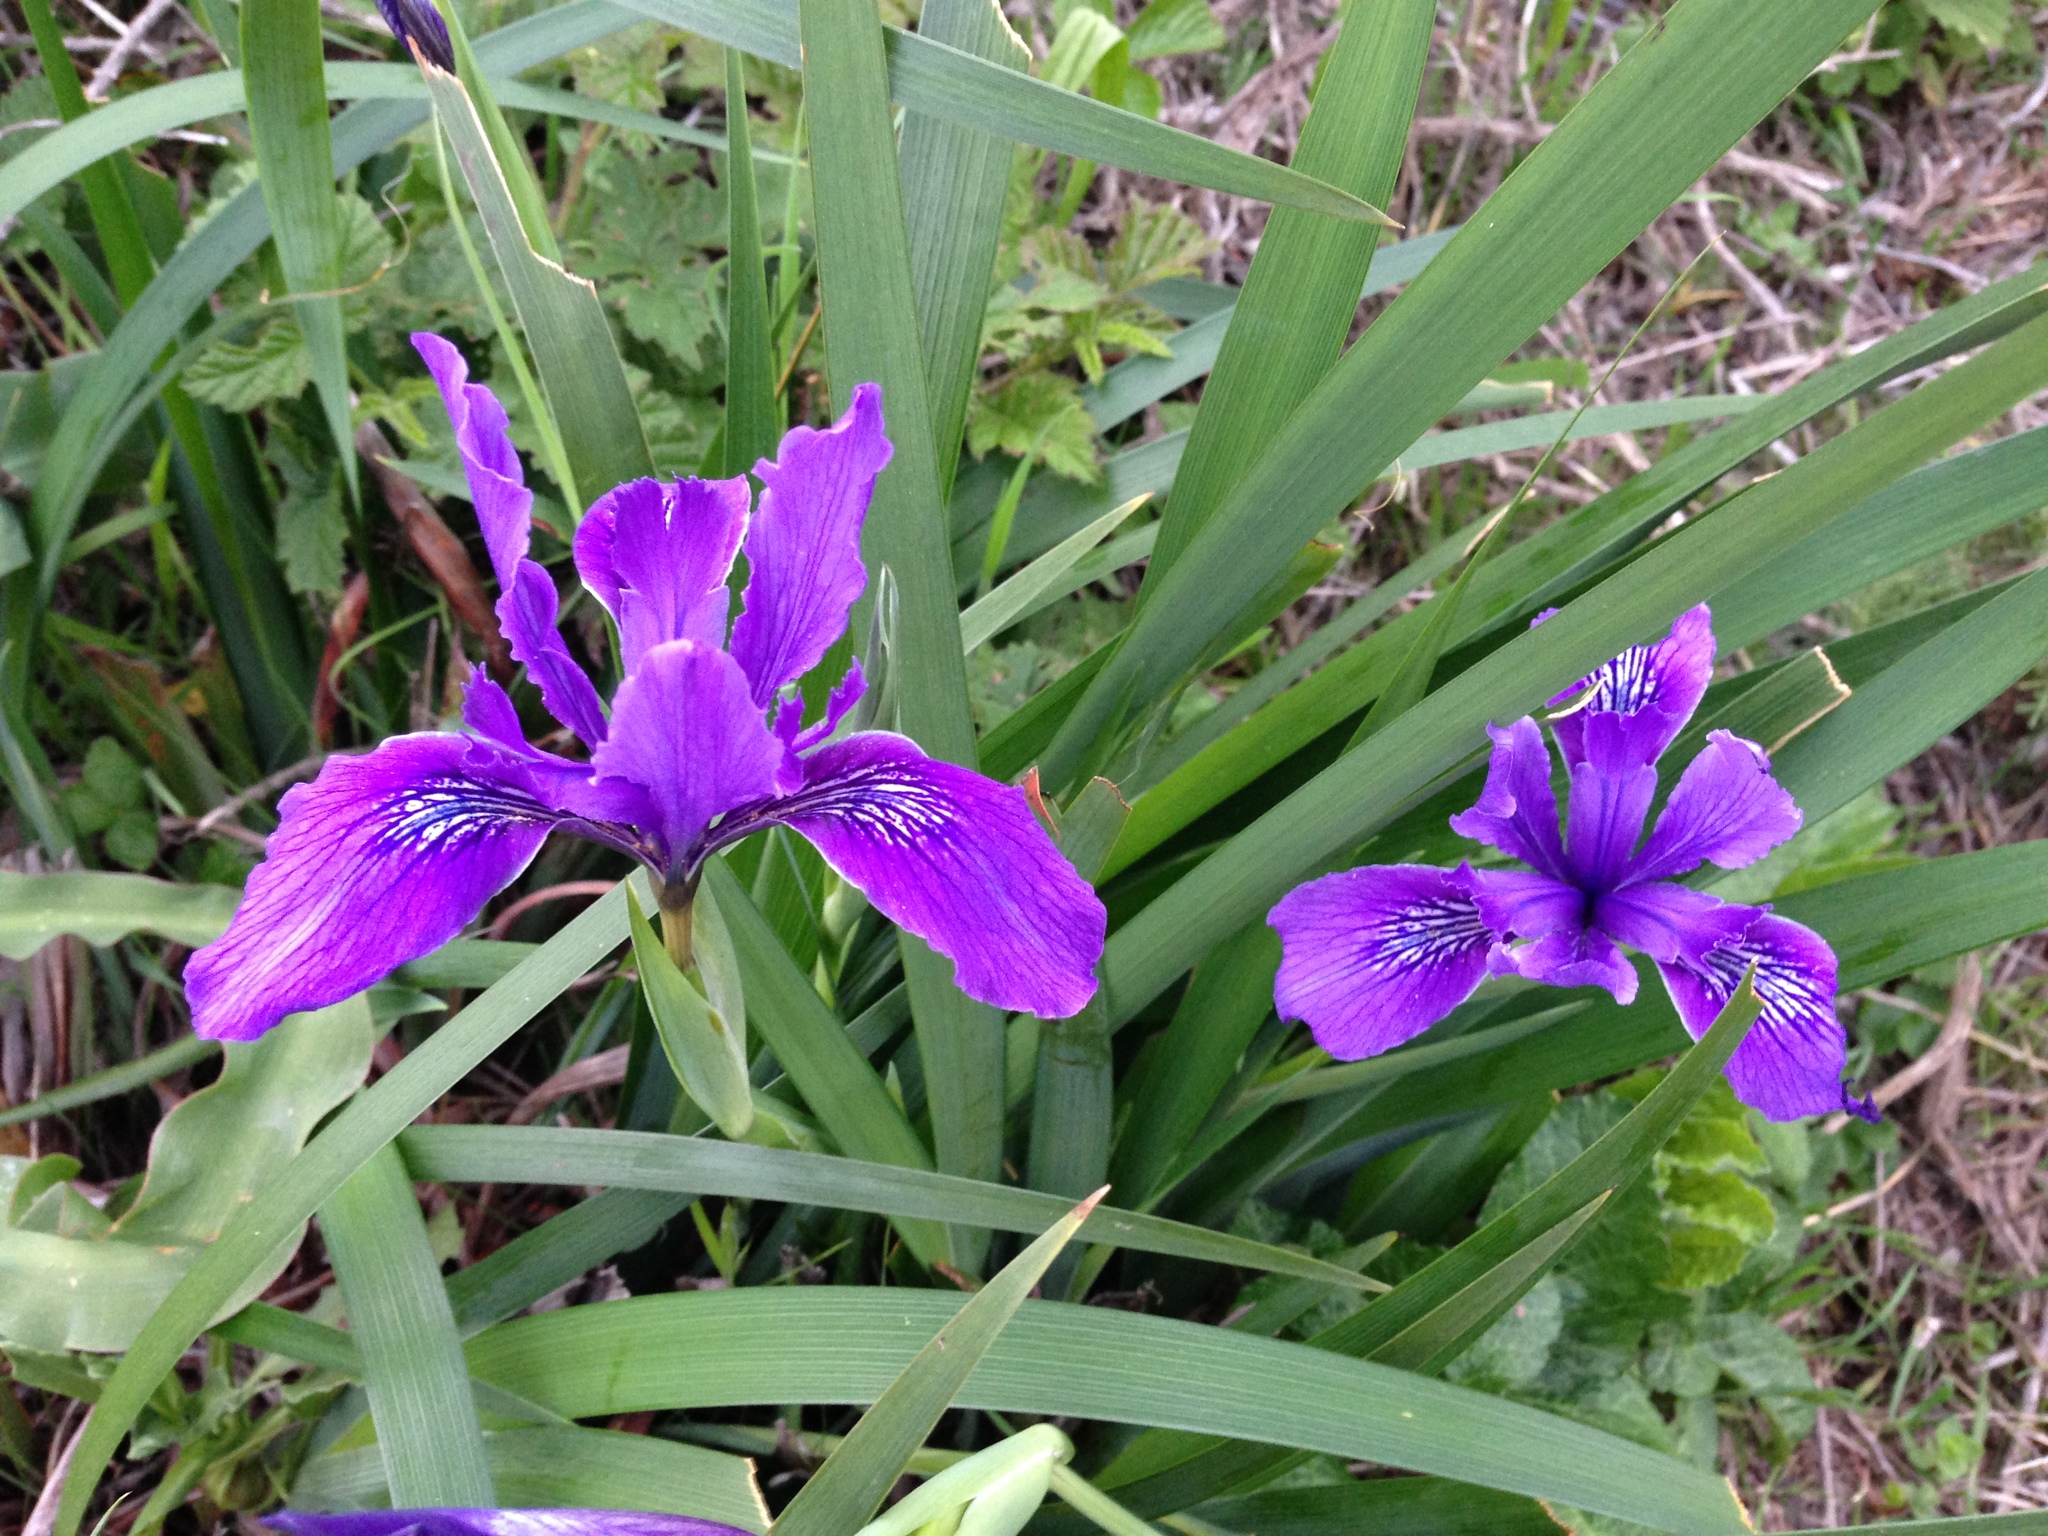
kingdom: Plantae
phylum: Tracheophyta
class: Liliopsida
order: Asparagales
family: Iridaceae
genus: Iris
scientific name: Iris douglasiana
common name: Marin iris
